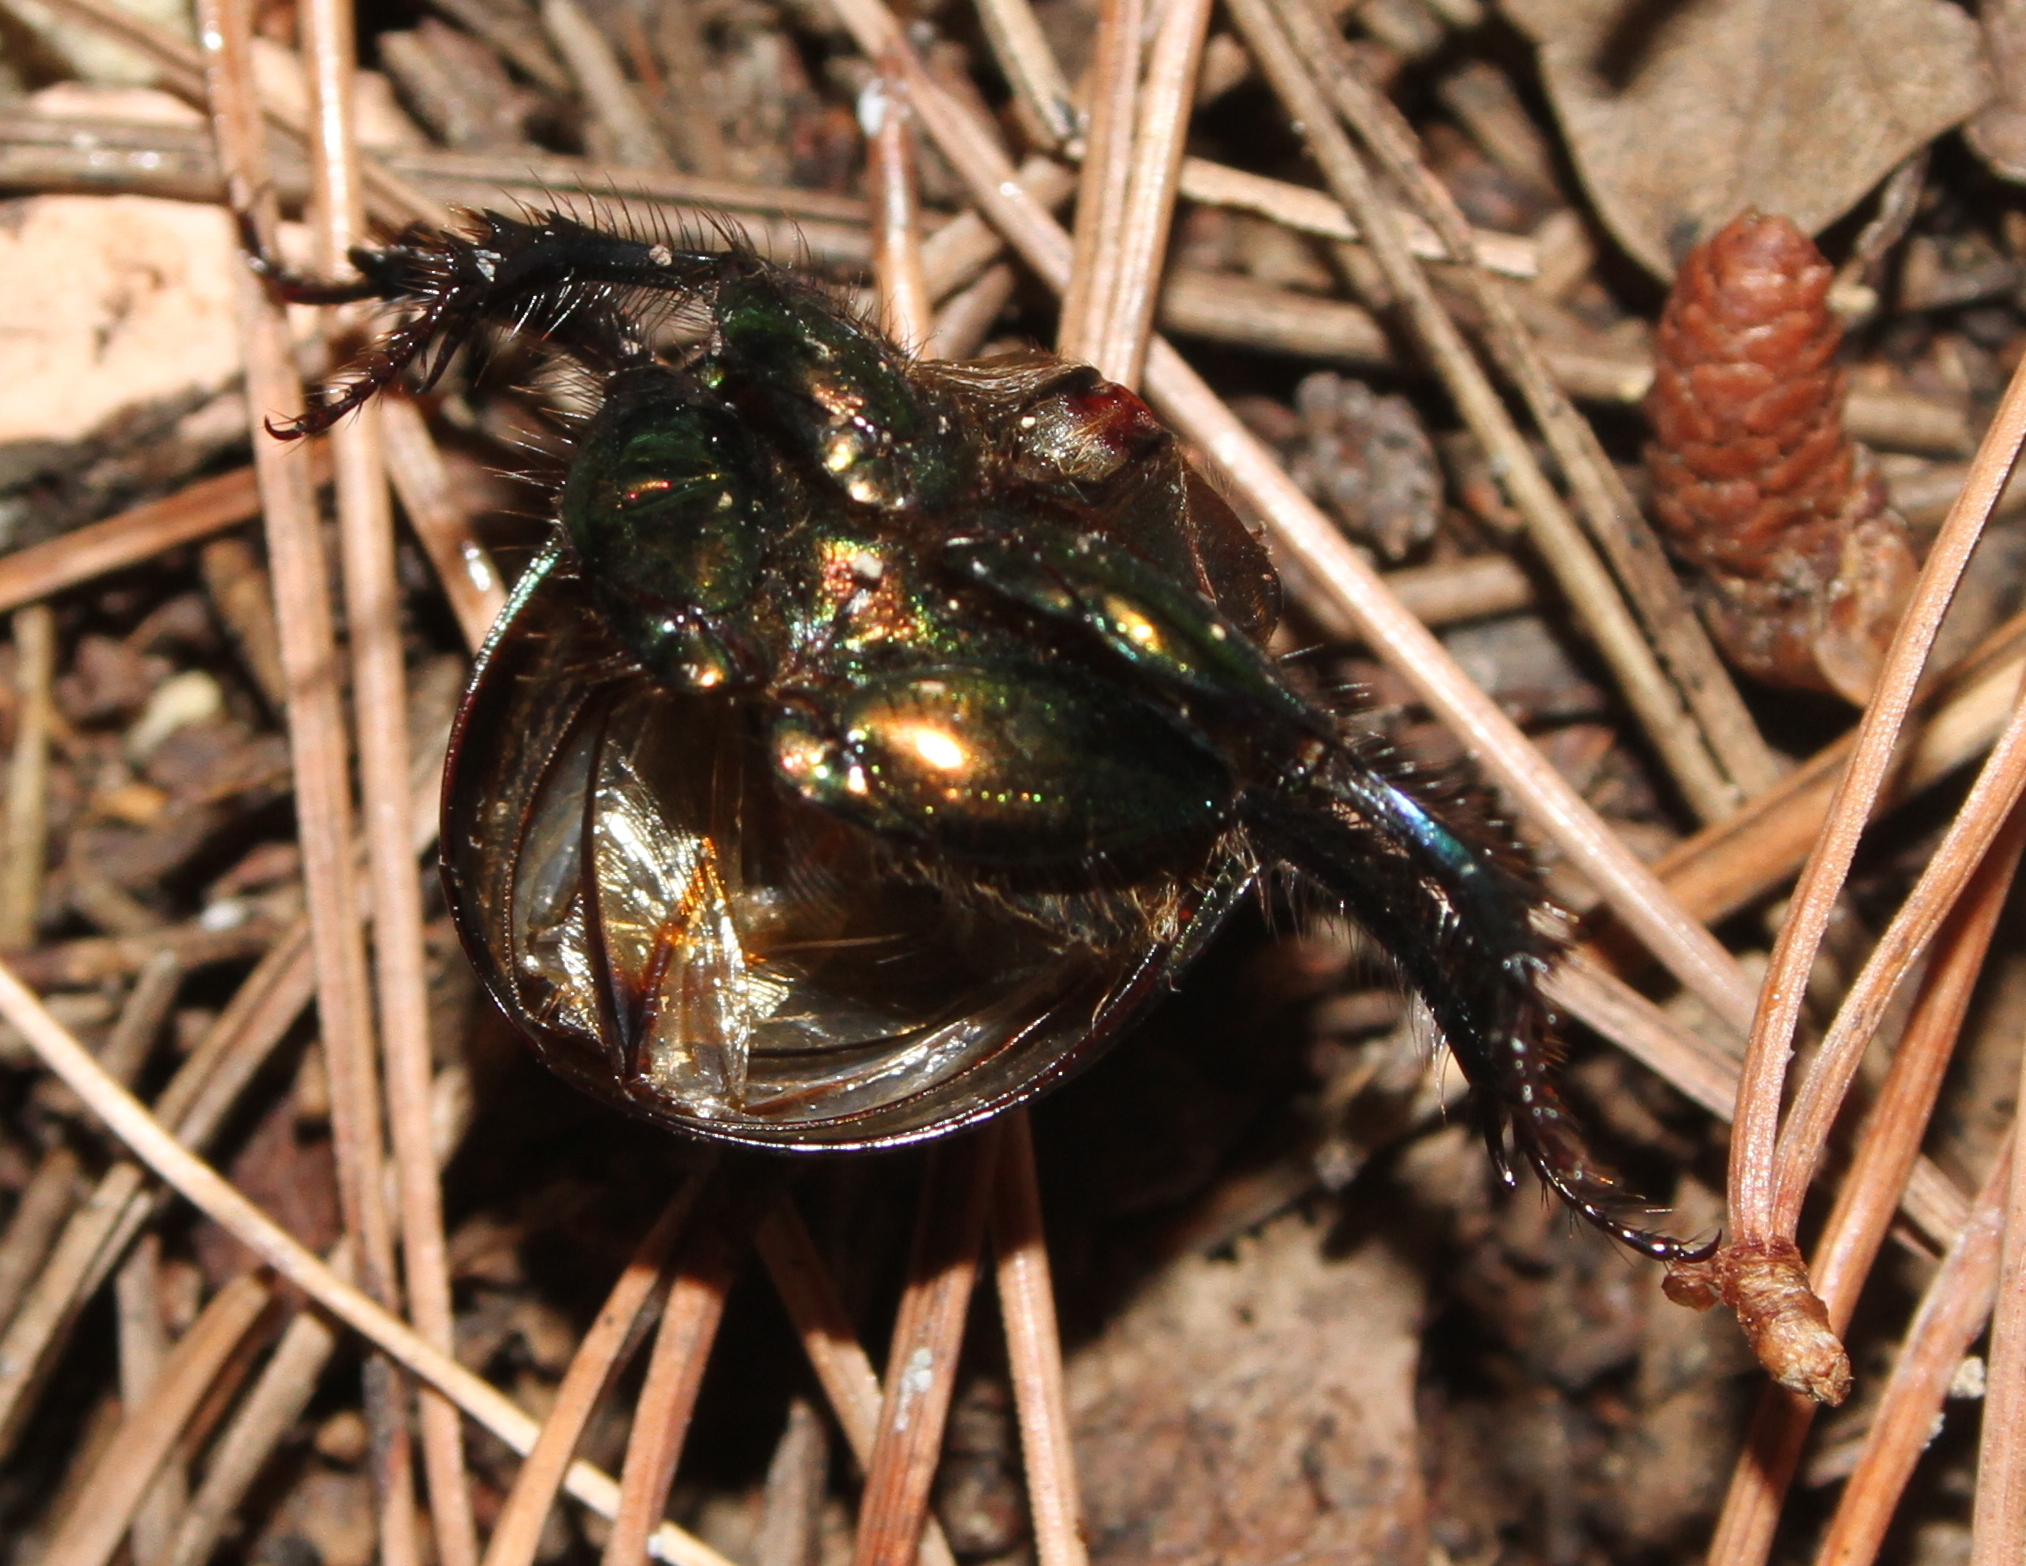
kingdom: Animalia
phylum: Arthropoda
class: Insecta
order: Coleoptera
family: Geotrupidae
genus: Sericotrupes
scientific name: Sericotrupes niger
